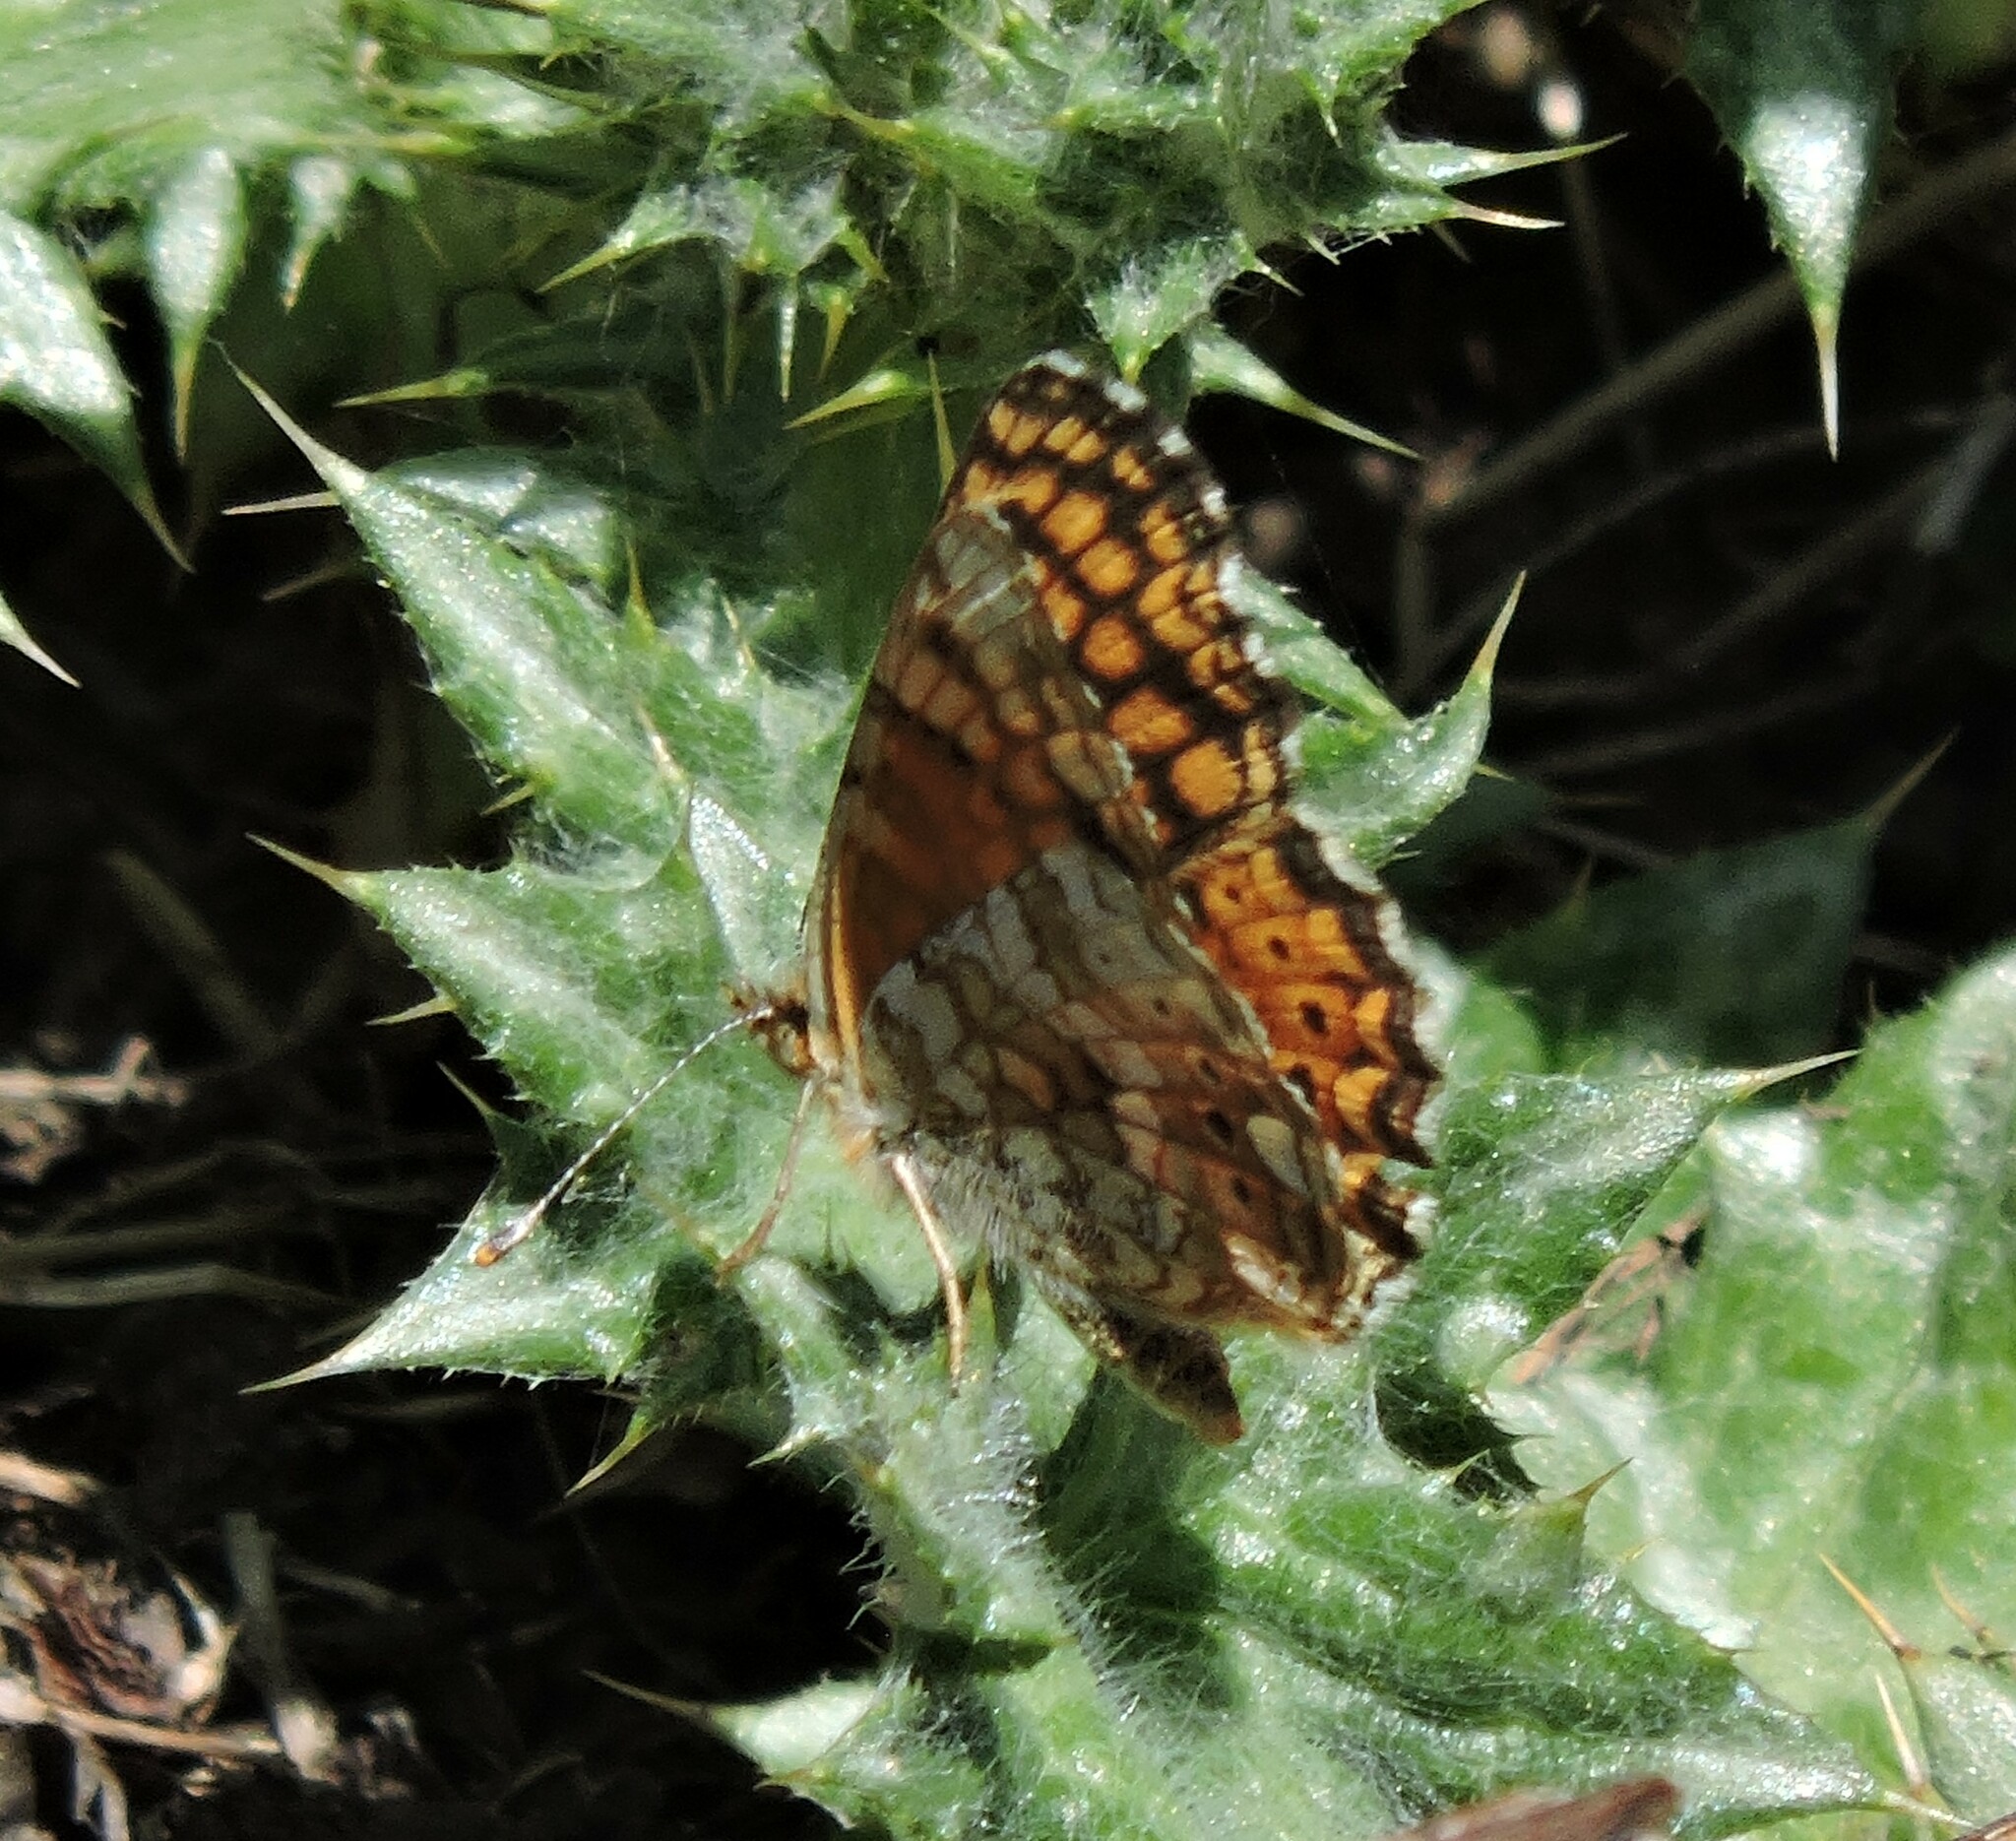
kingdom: Animalia
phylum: Arthropoda
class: Insecta
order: Lepidoptera
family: Nymphalidae
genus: Eresia
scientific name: Eresia aveyrona
